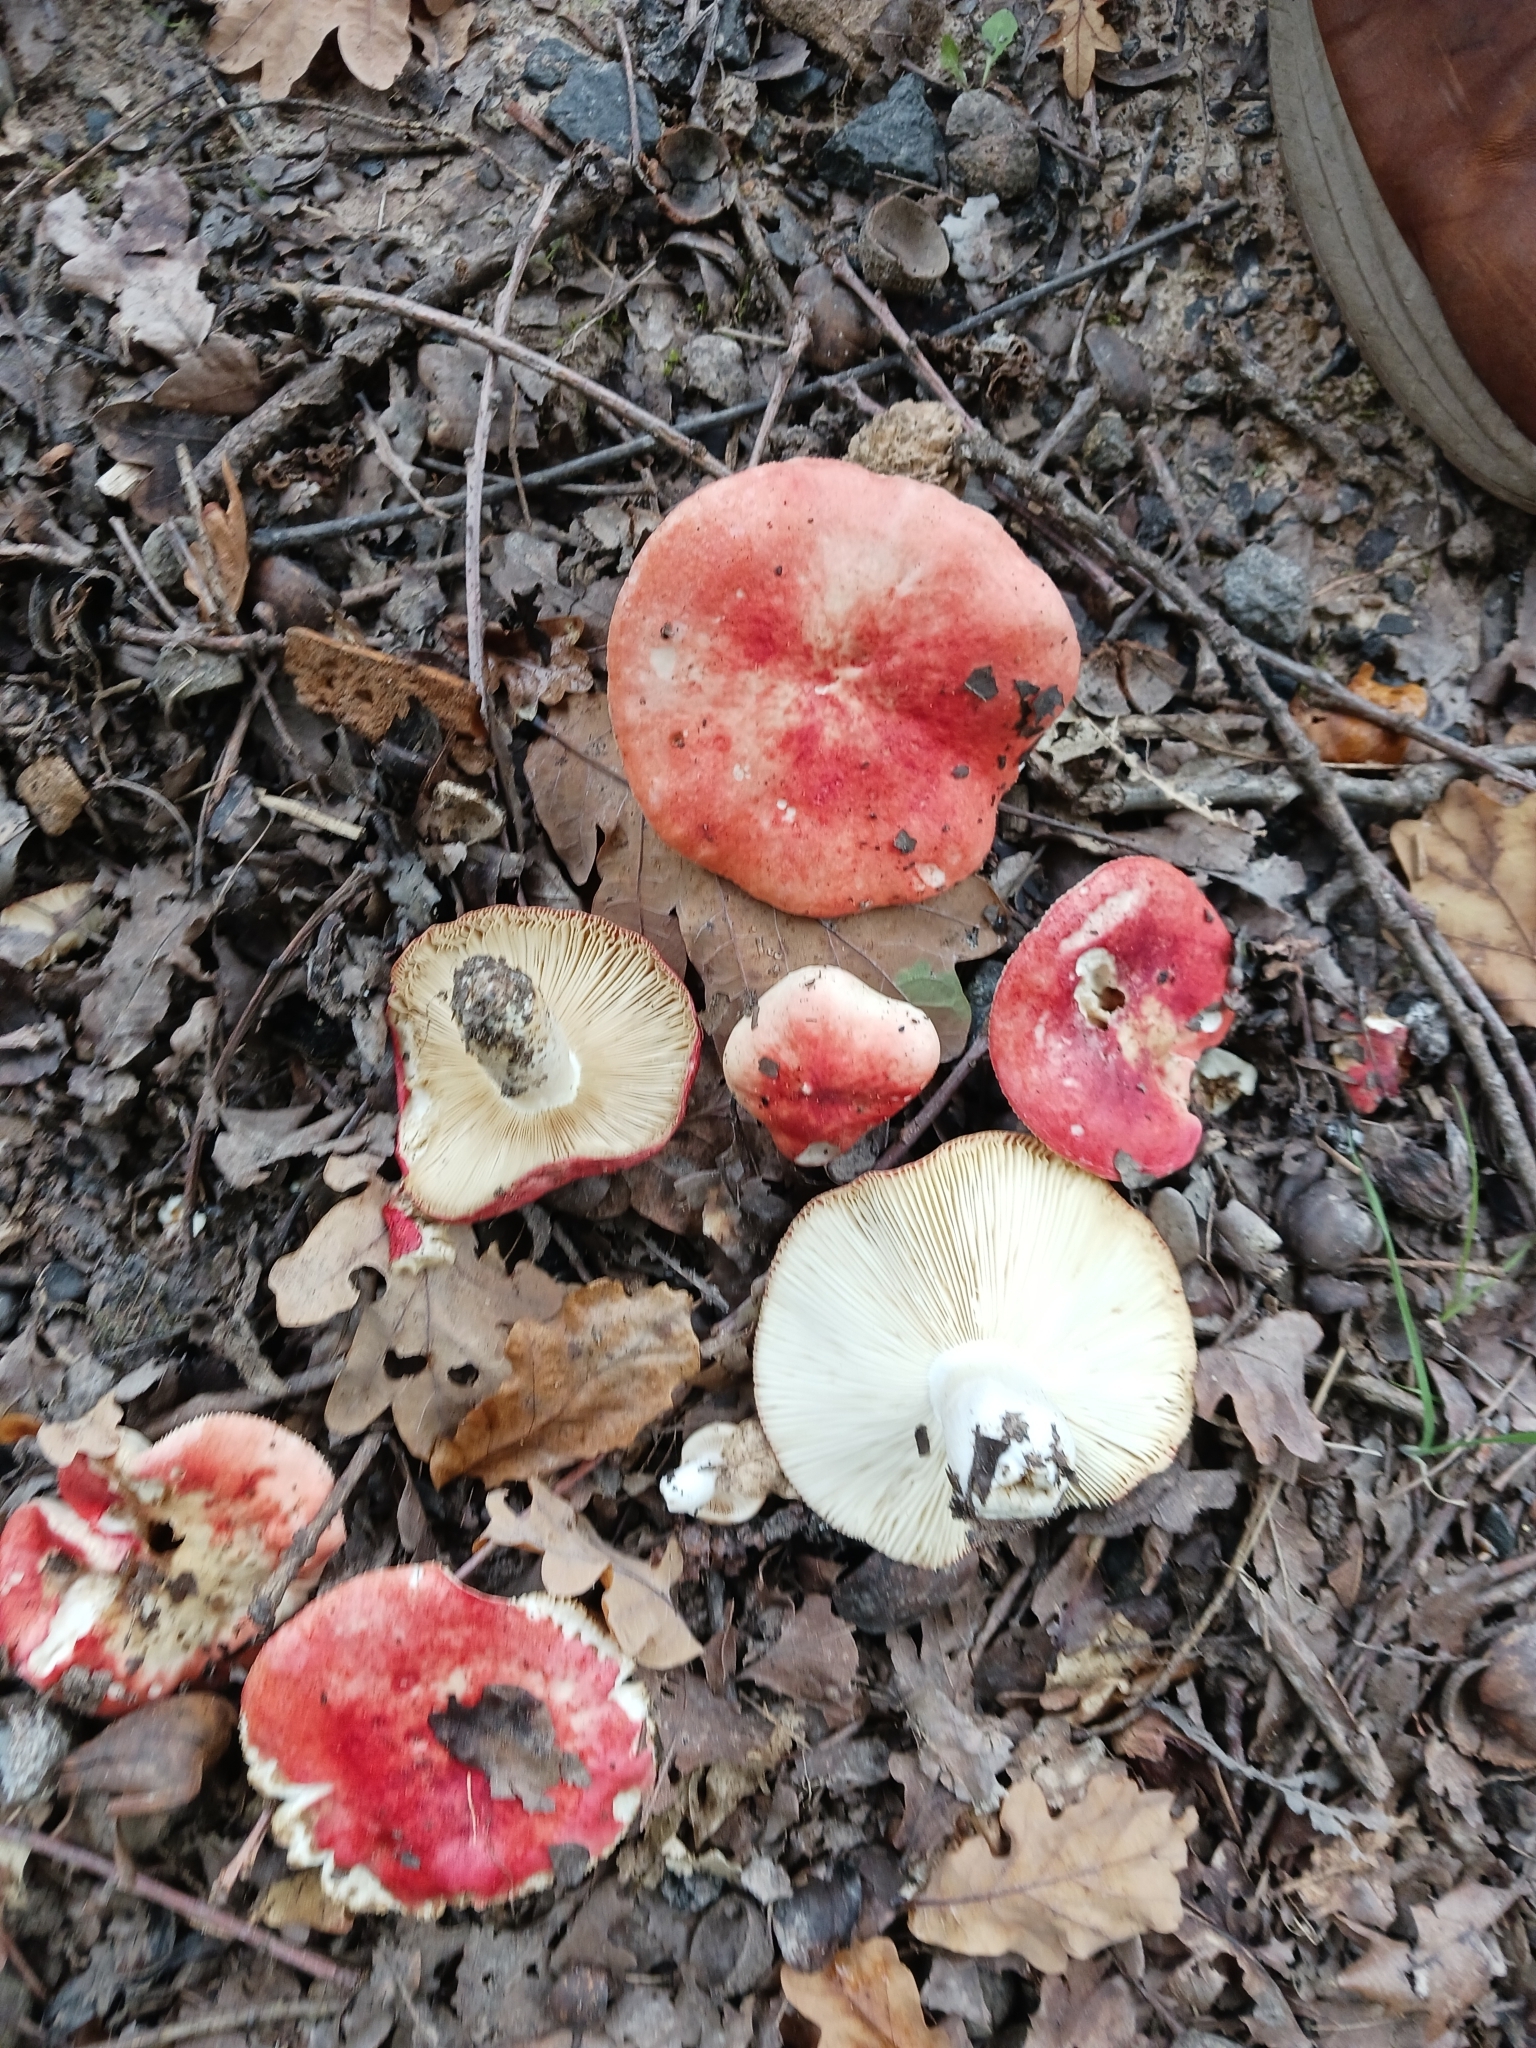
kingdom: Fungi
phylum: Basidiomycota
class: Agaricomycetes
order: Russulales
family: Russulaceae
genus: Russula
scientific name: Russula luteotacta
